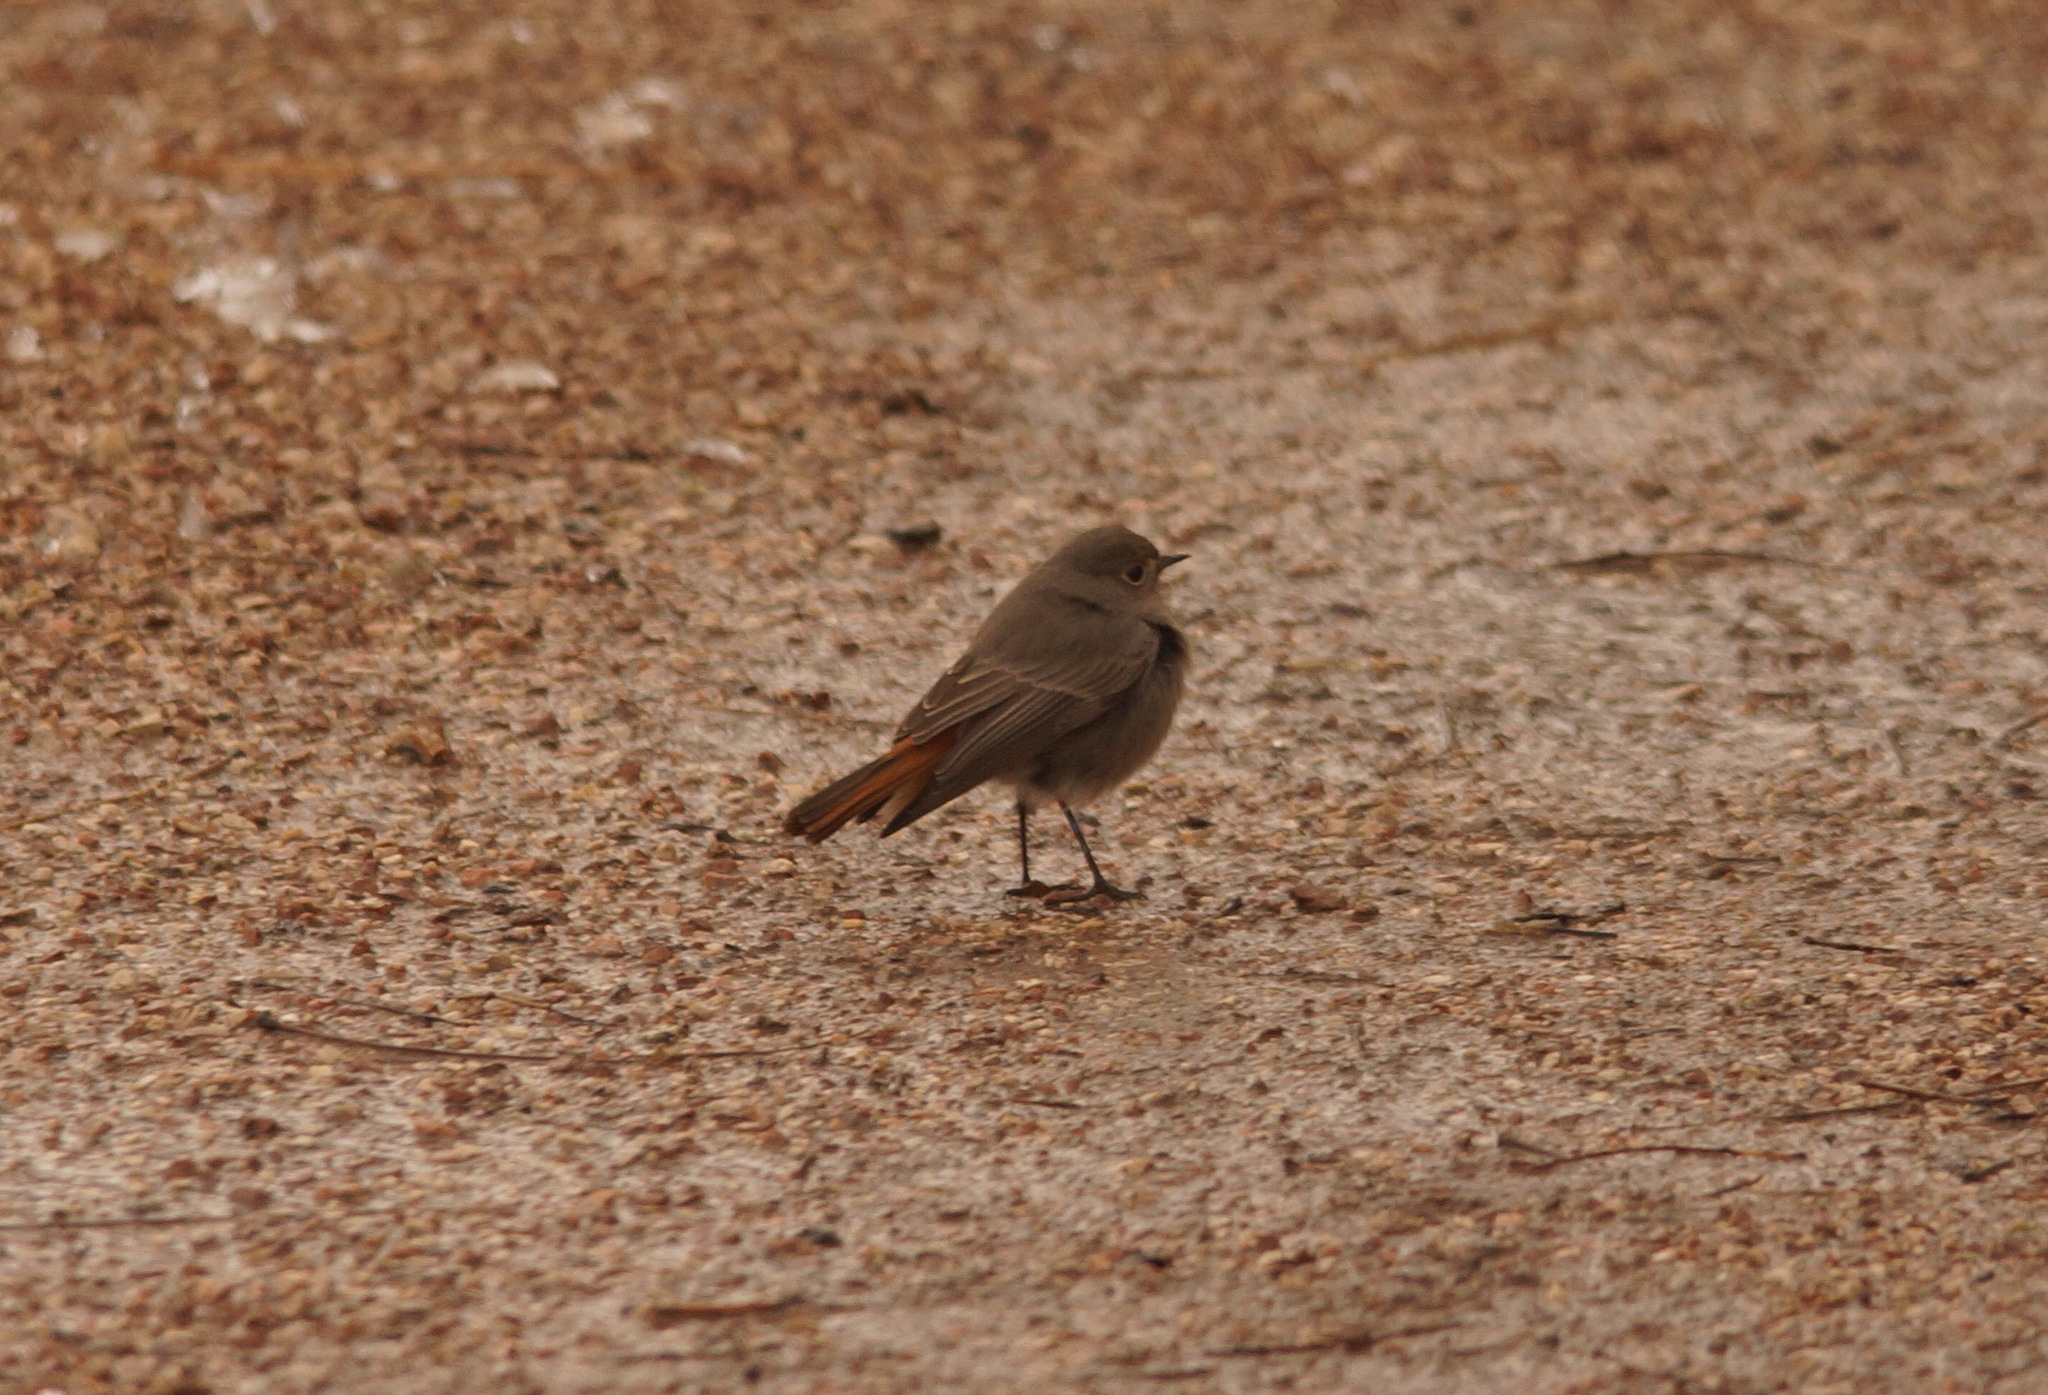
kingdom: Animalia
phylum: Chordata
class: Aves
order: Passeriformes
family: Muscicapidae
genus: Phoenicurus
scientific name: Phoenicurus ochruros
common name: Black redstart
